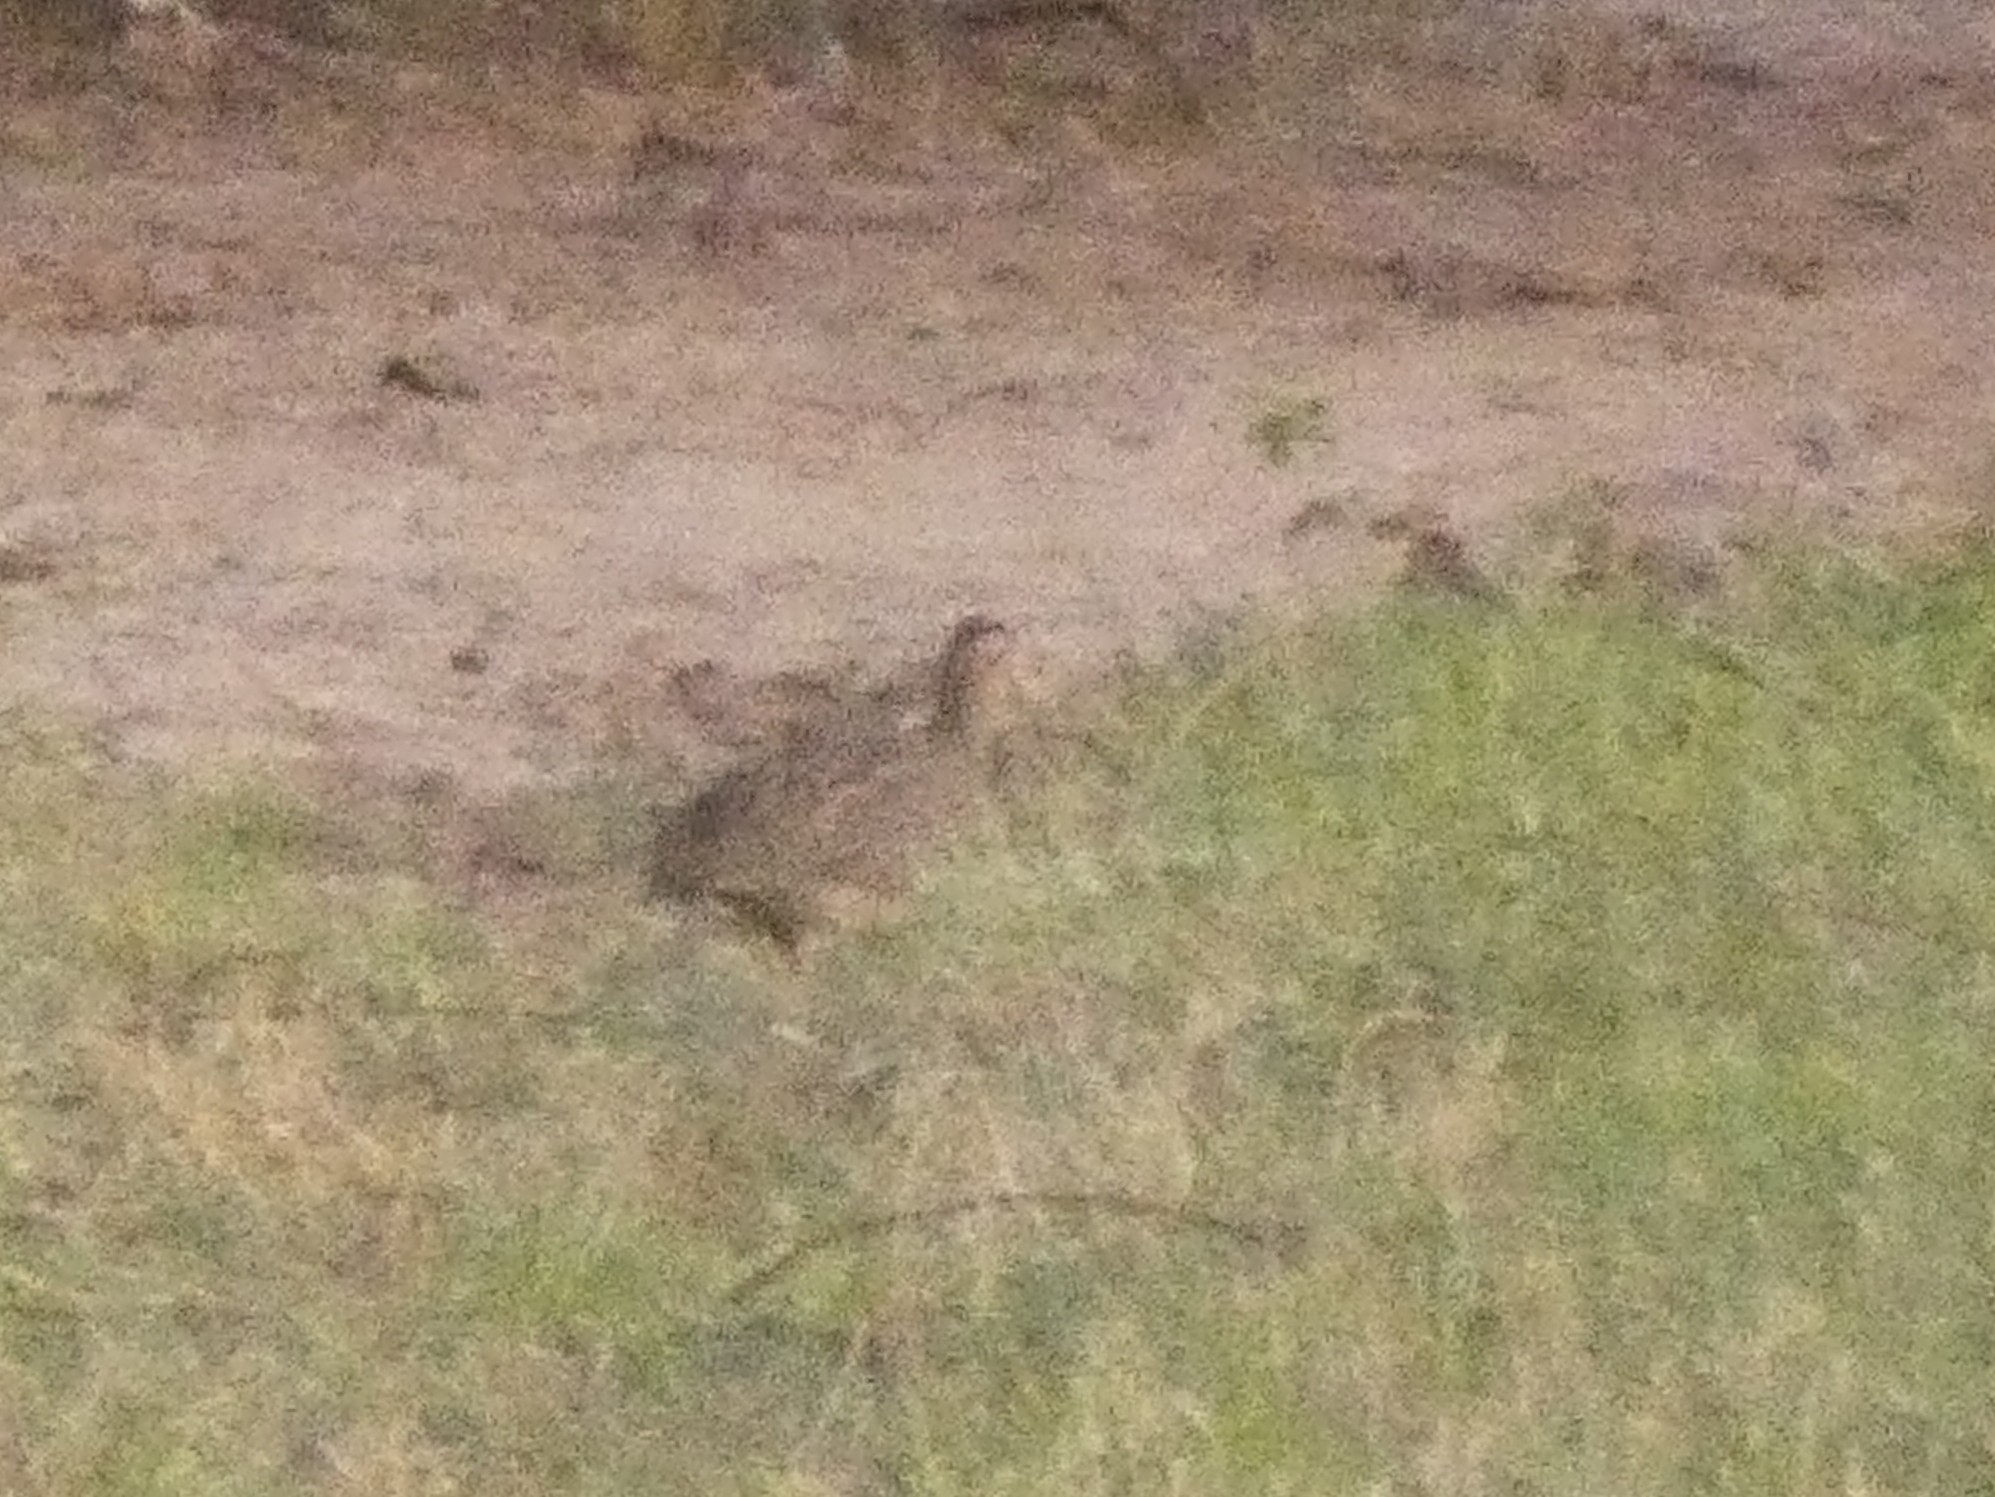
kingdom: Animalia
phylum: Chordata
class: Aves
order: Tinamiformes
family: Tinamidae
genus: Nothoprocta
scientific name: Nothoprocta cinerascens
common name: Brushland tinamou
